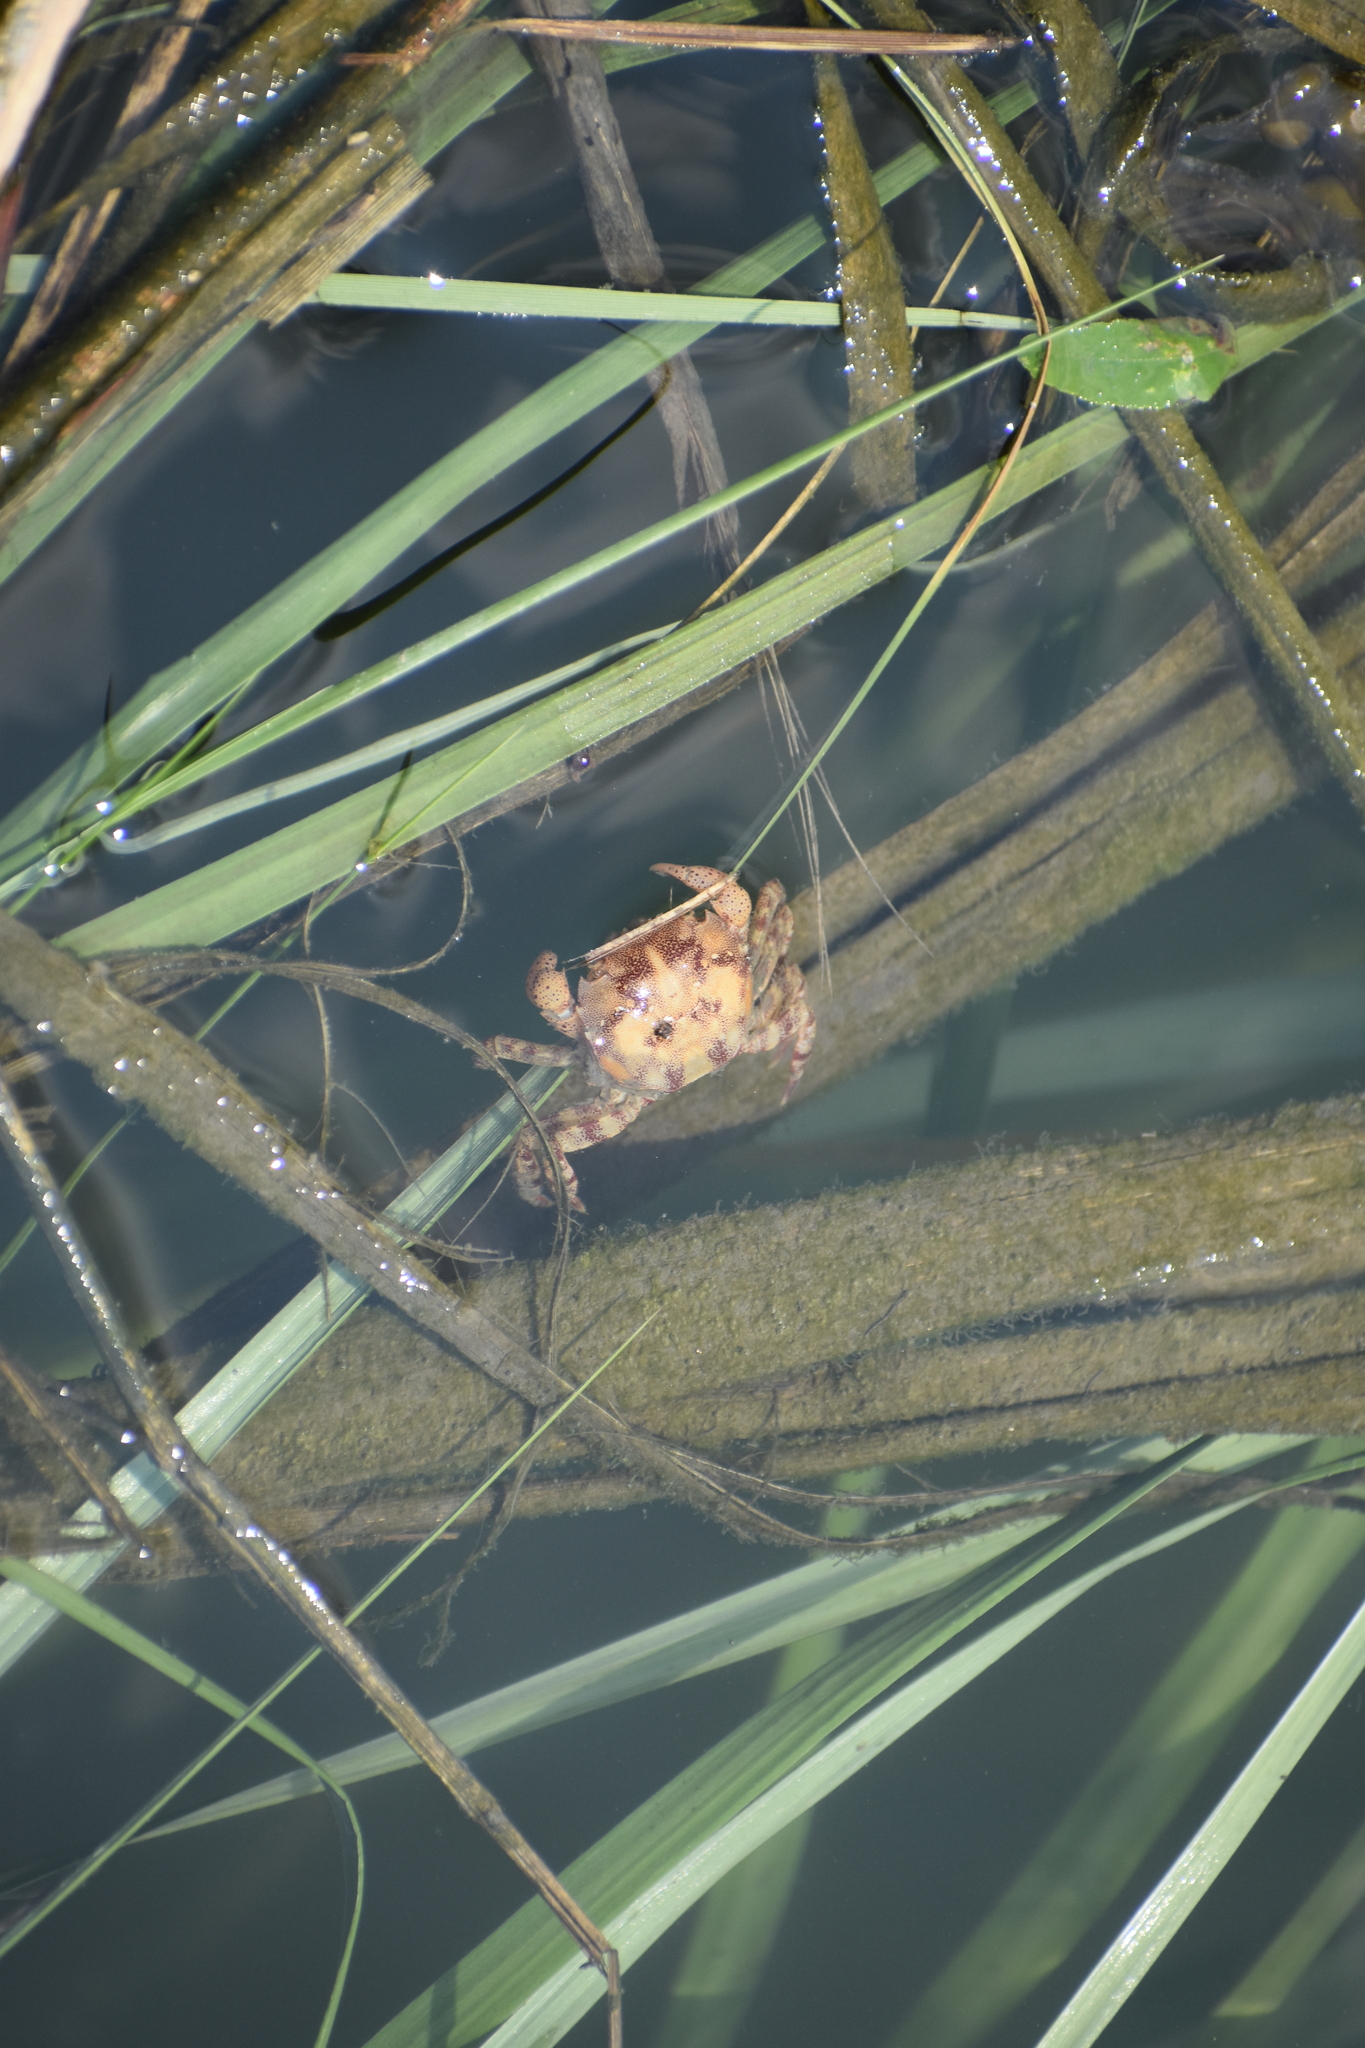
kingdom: Animalia
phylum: Arthropoda
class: Malacostraca
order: Decapoda
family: Varunidae
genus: Hemigrapsus
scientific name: Hemigrapsus sanguineus
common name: Asian shore crab
